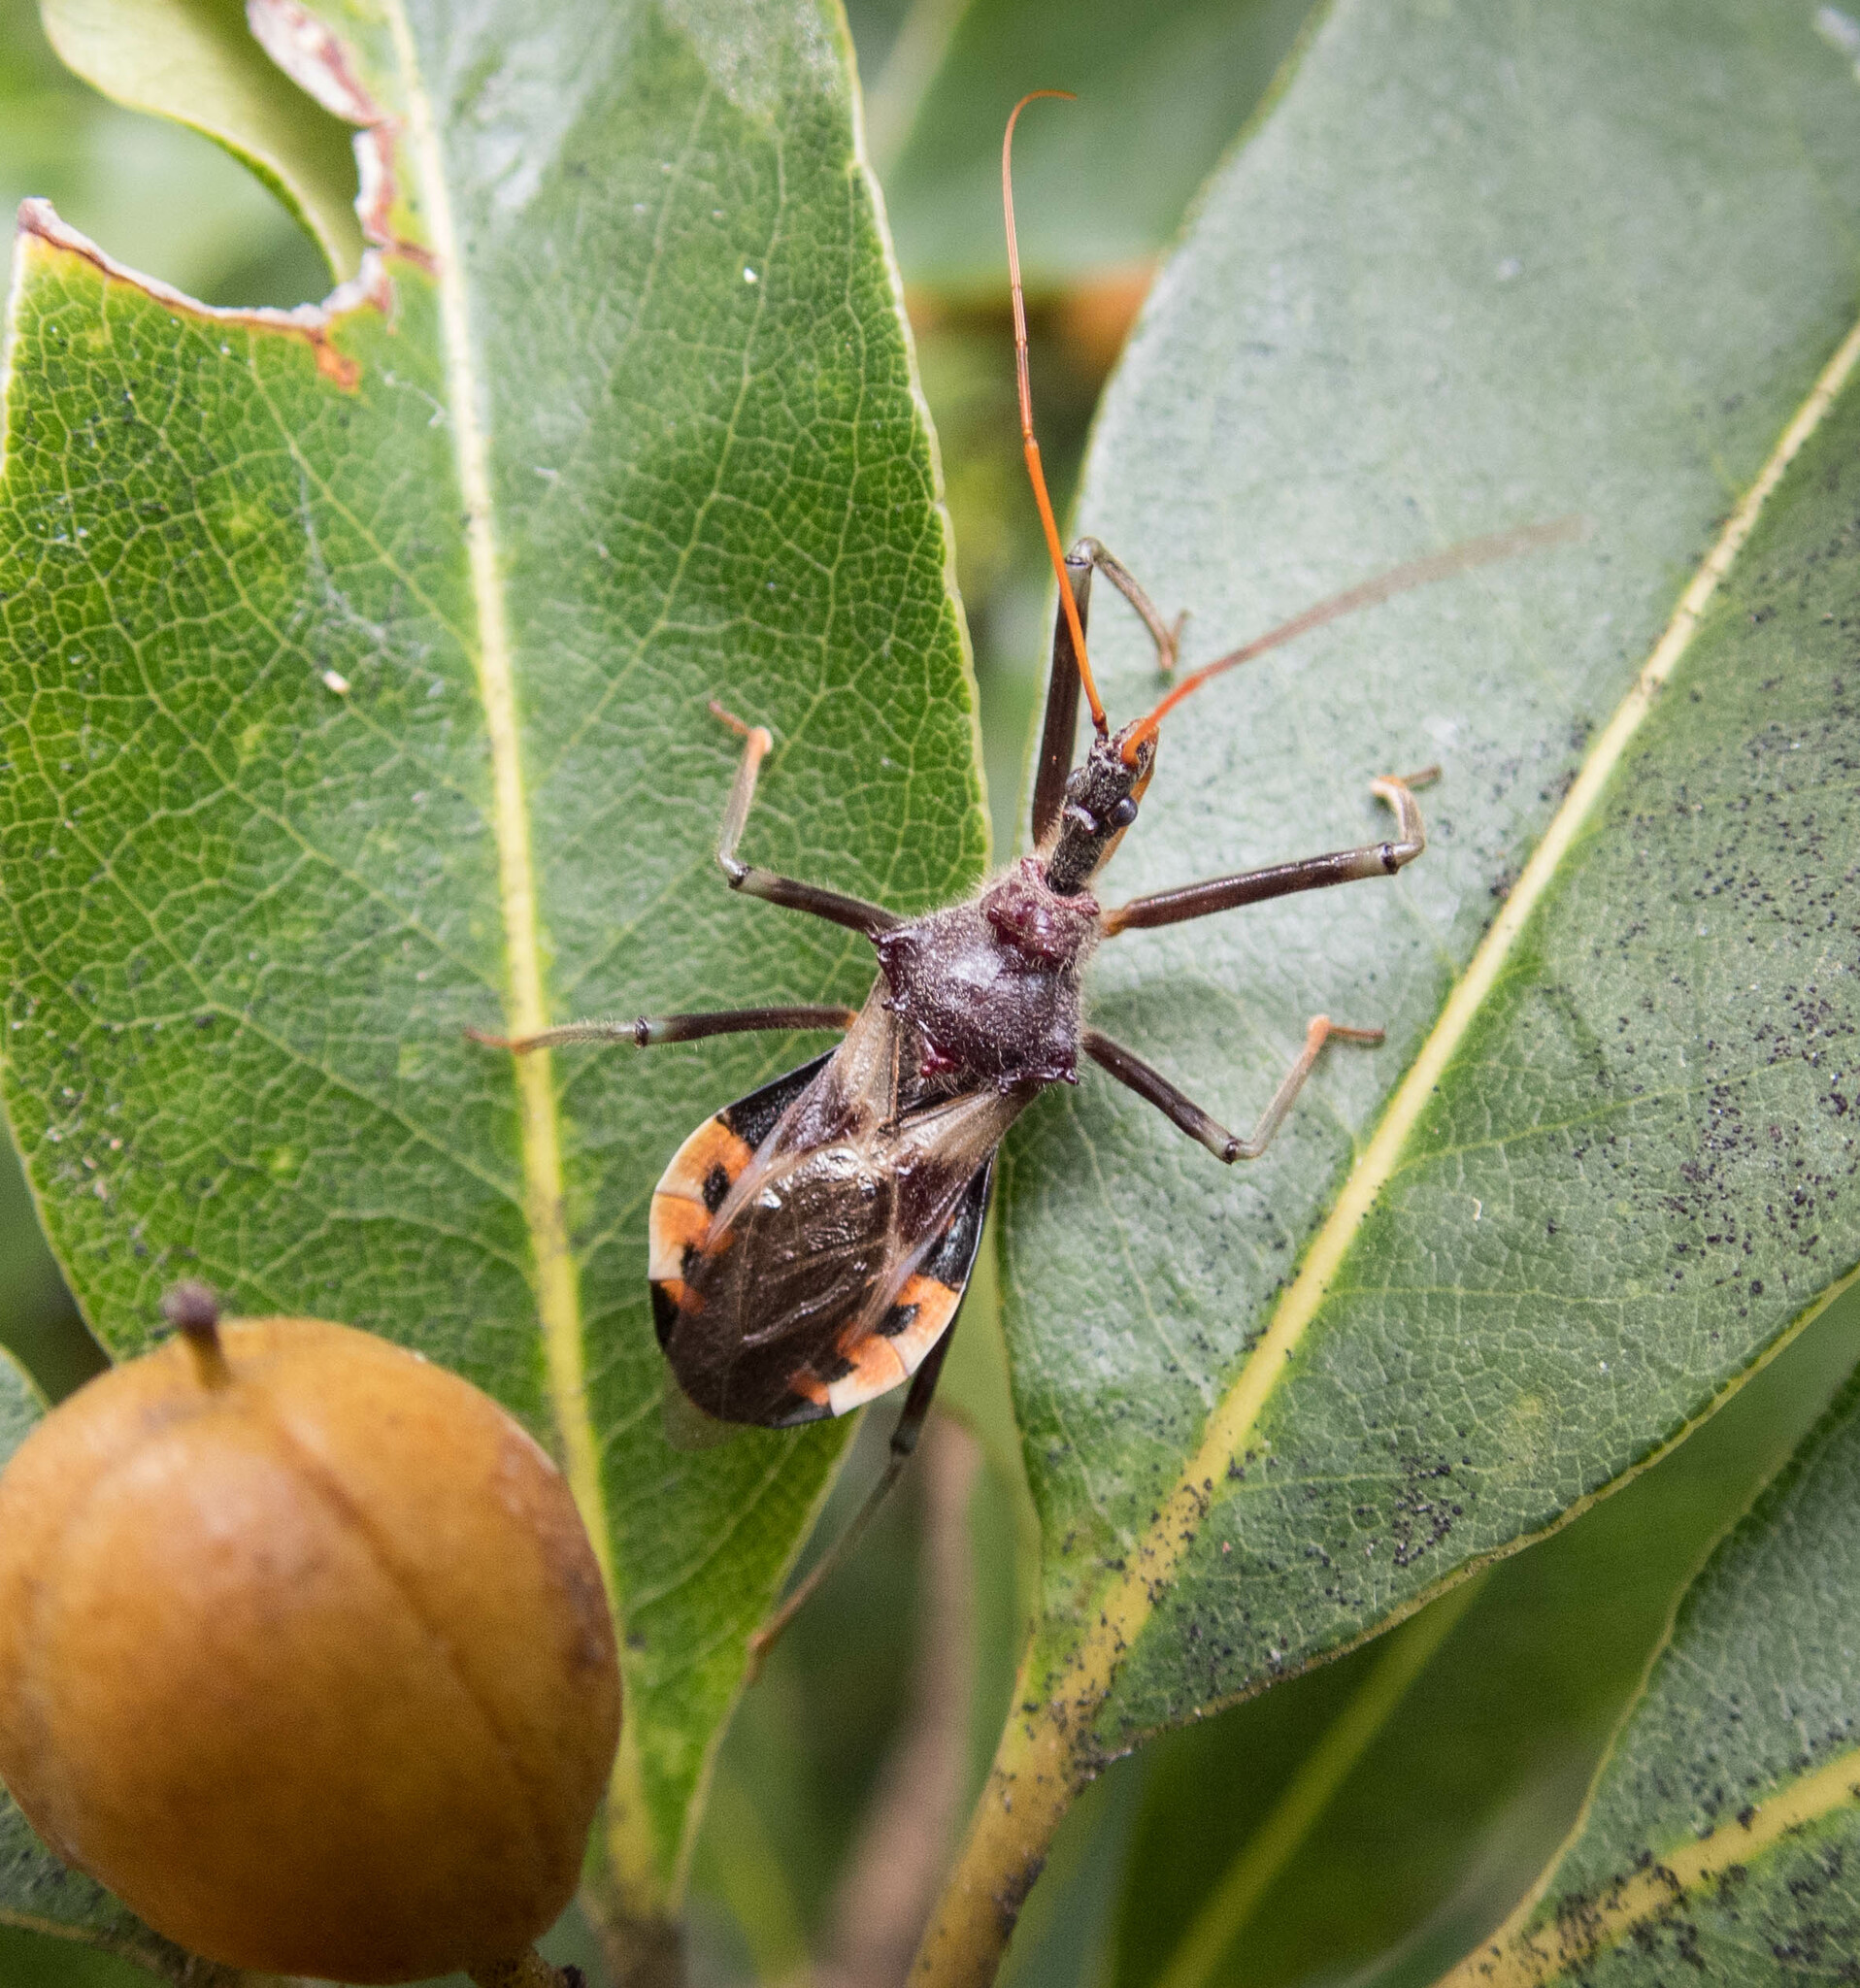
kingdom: Animalia
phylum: Arthropoda
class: Insecta
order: Hemiptera
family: Reduviidae
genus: Pristhesancus
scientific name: Pristhesancus plagipennis
